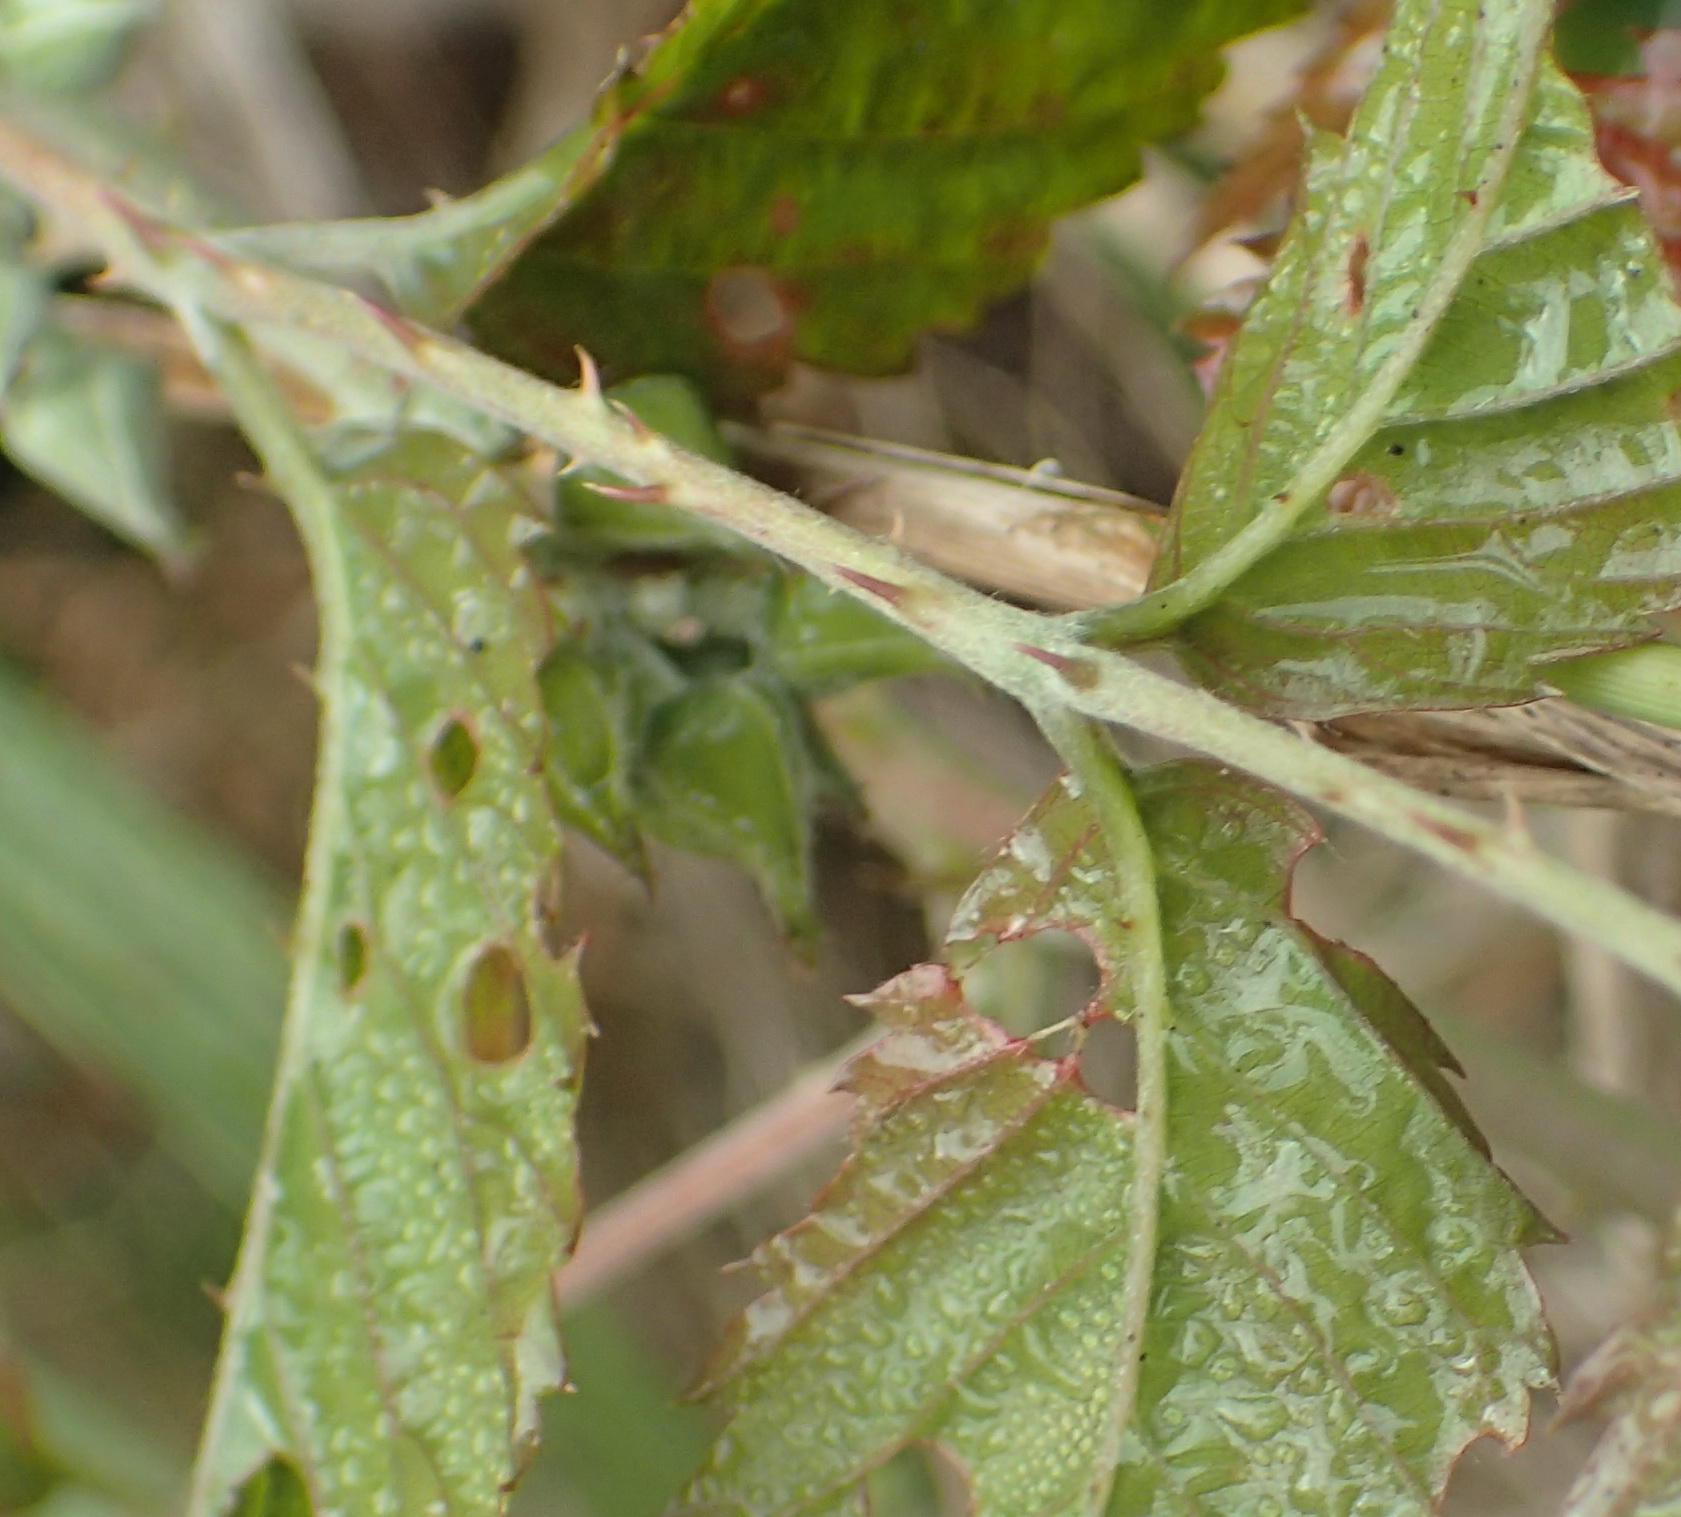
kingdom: Plantae
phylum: Tracheophyta
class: Magnoliopsida
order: Rosales
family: Rosaceae
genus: Rubus
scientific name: Rubus pinnatus
